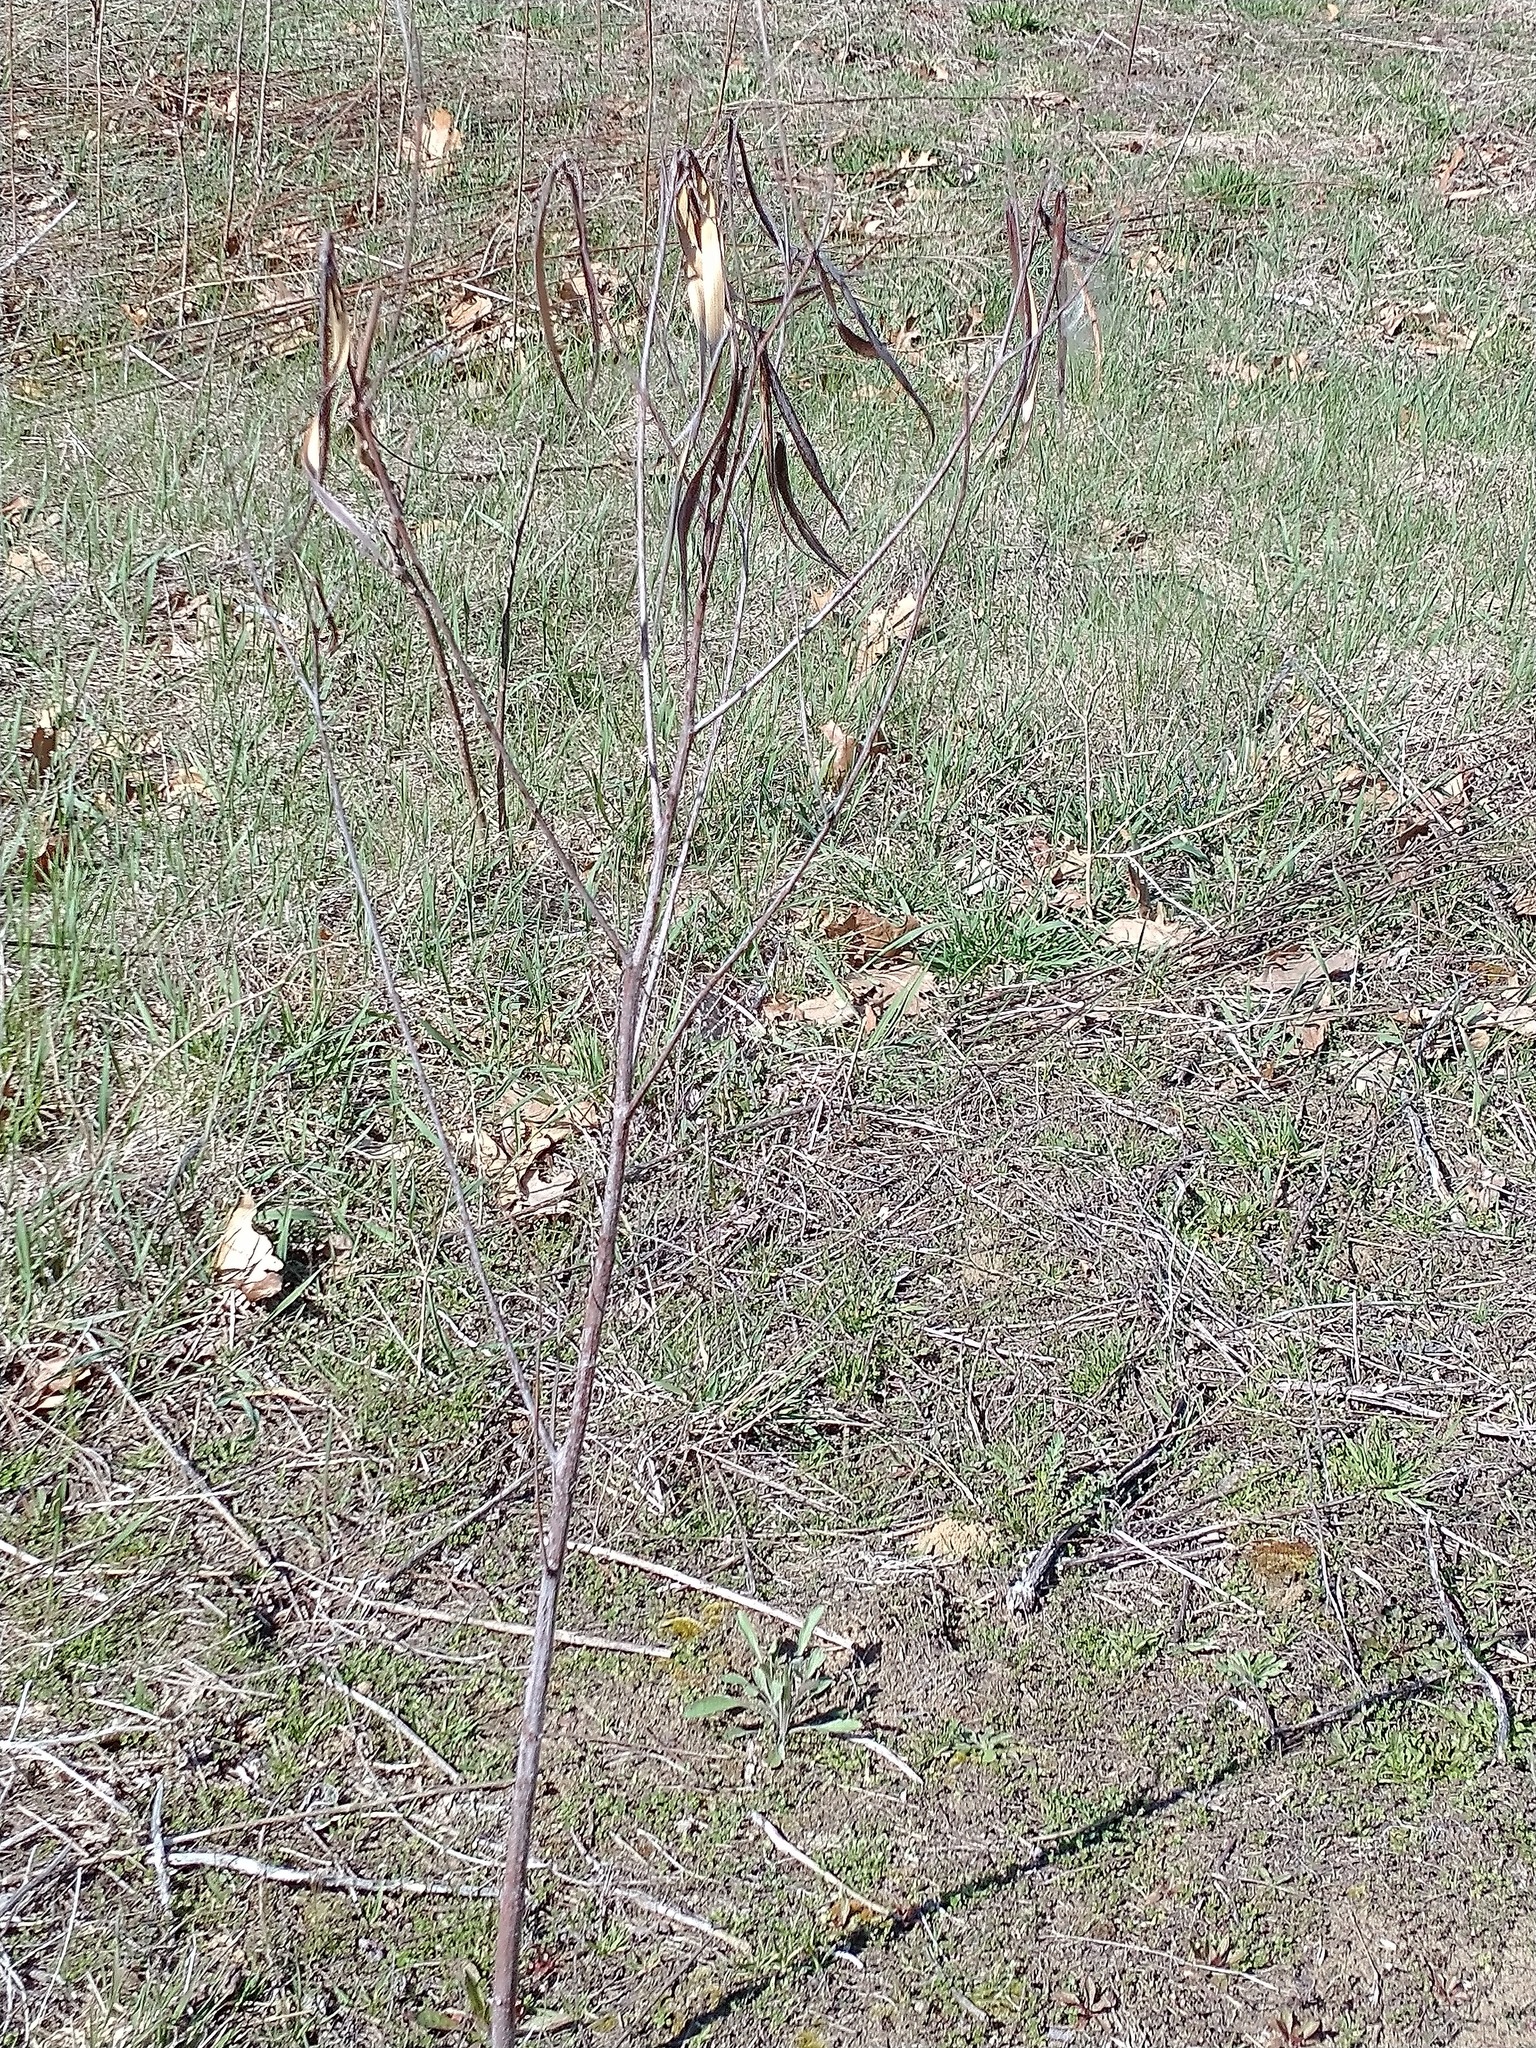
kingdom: Plantae
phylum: Tracheophyta
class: Magnoliopsida
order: Gentianales
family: Apocynaceae
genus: Apocynum
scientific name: Apocynum cannabinum
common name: Hemp dogbane
